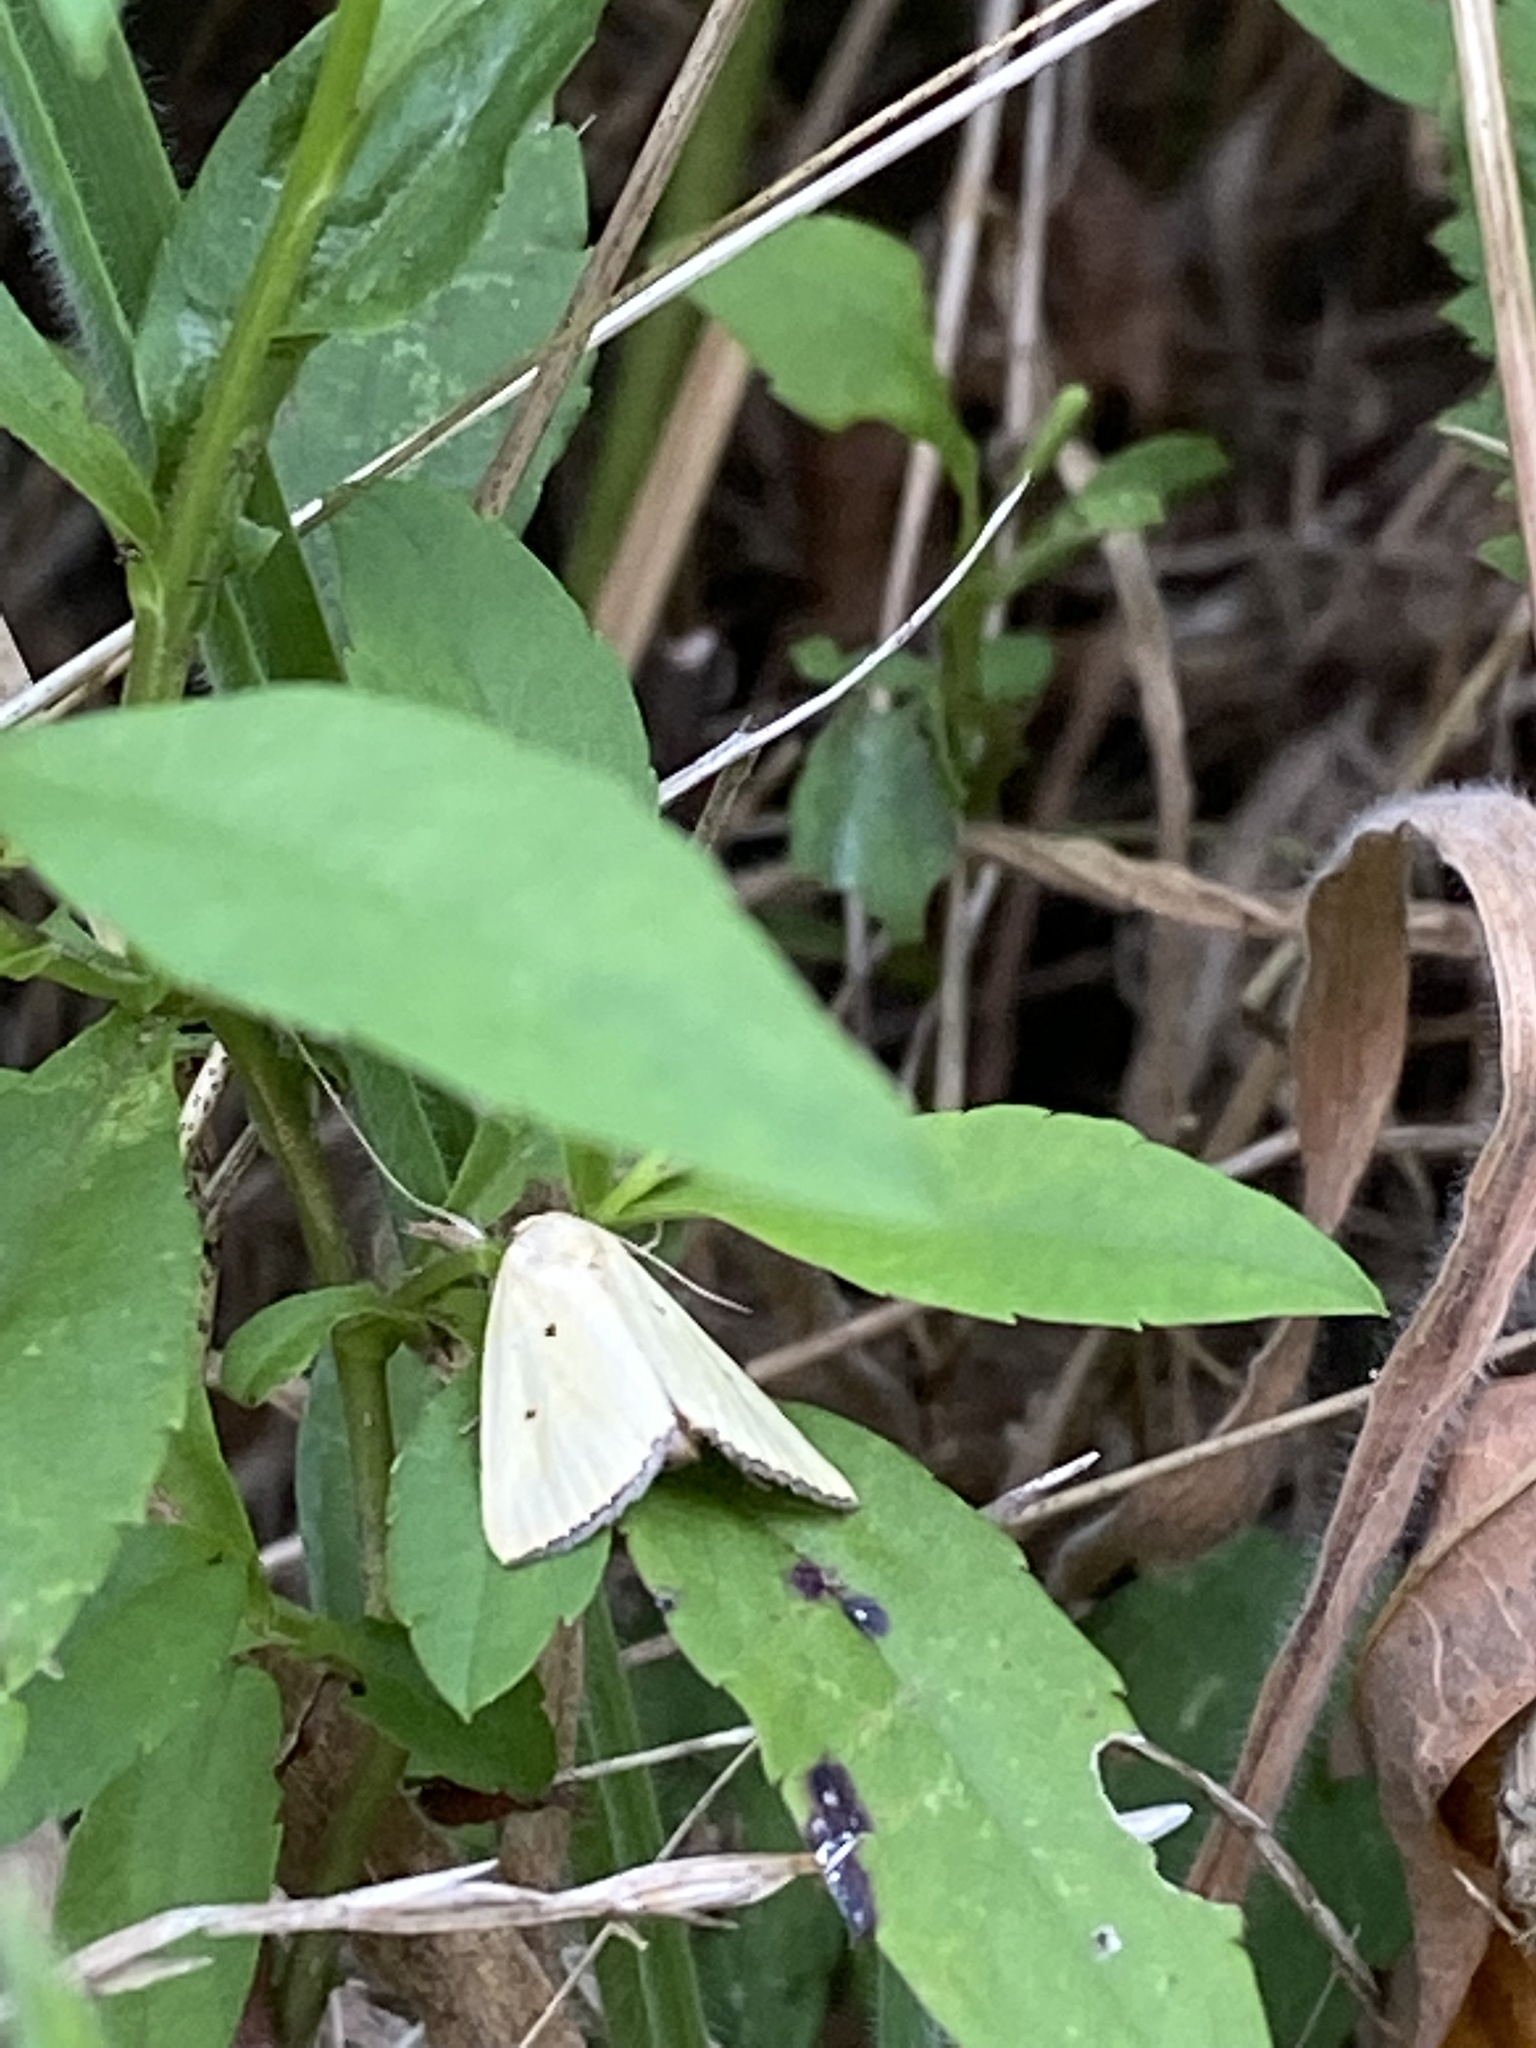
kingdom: Animalia
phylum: Arthropoda
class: Insecta
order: Lepidoptera
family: Noctuidae
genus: Marimatha
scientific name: Marimatha nigrofimbria
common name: Black-bordered lemon moth
